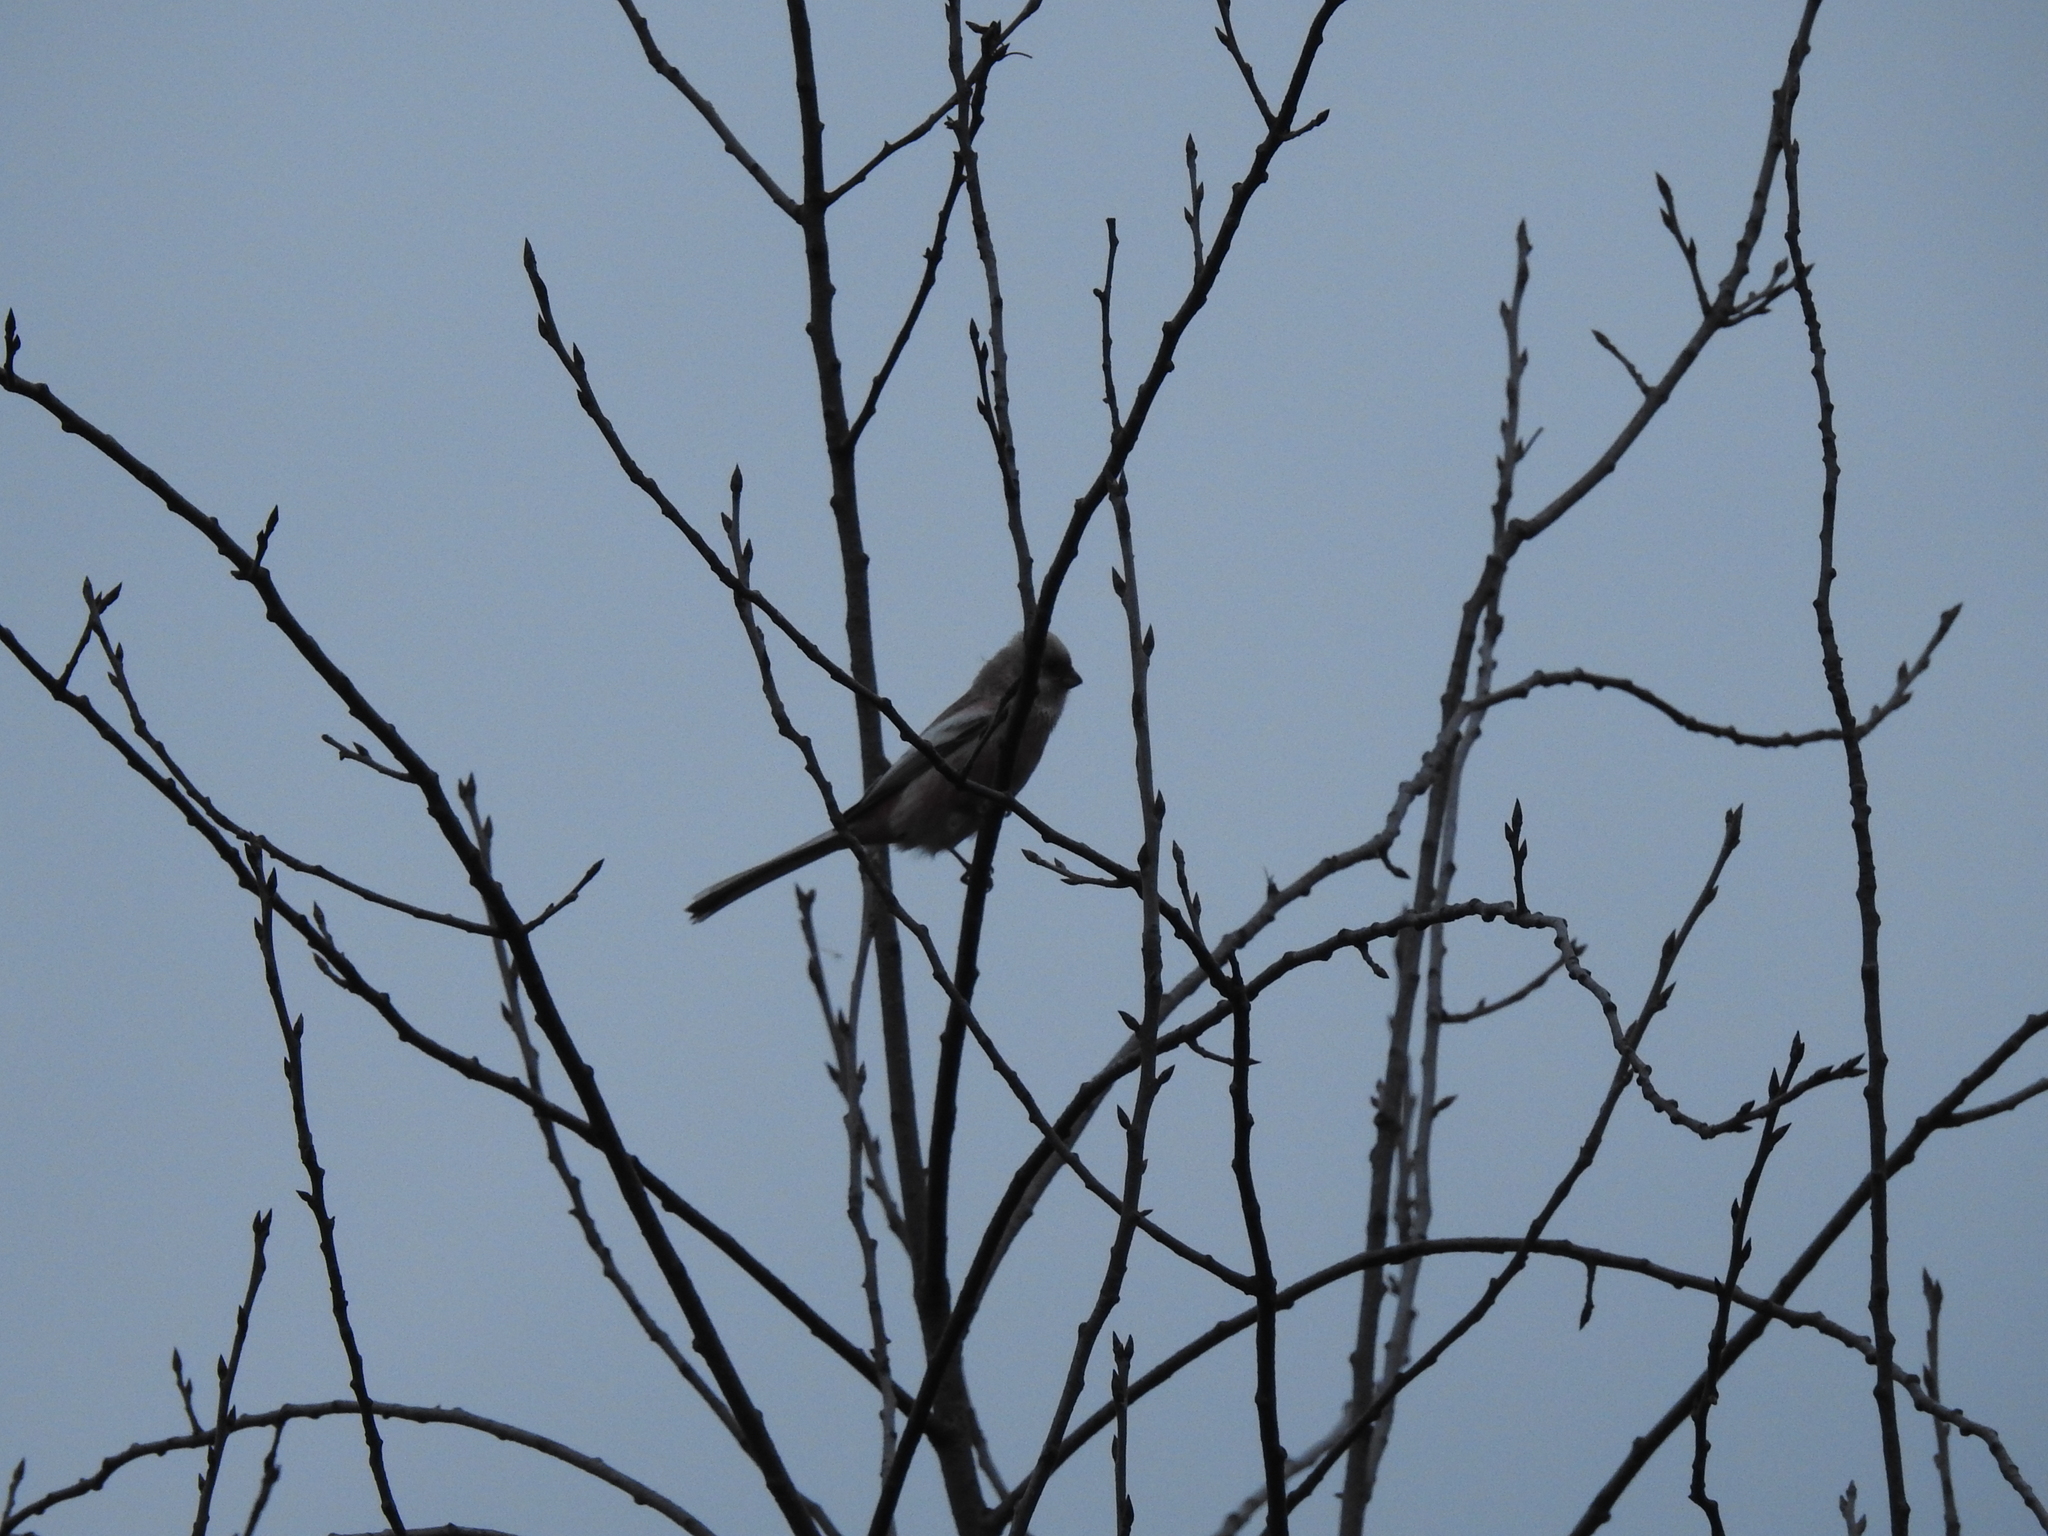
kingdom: Animalia
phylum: Chordata
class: Aves
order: Passeriformes
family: Fringillidae
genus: Carpodacus
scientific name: Carpodacus sibiricus
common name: Long-tailed rosefinch
